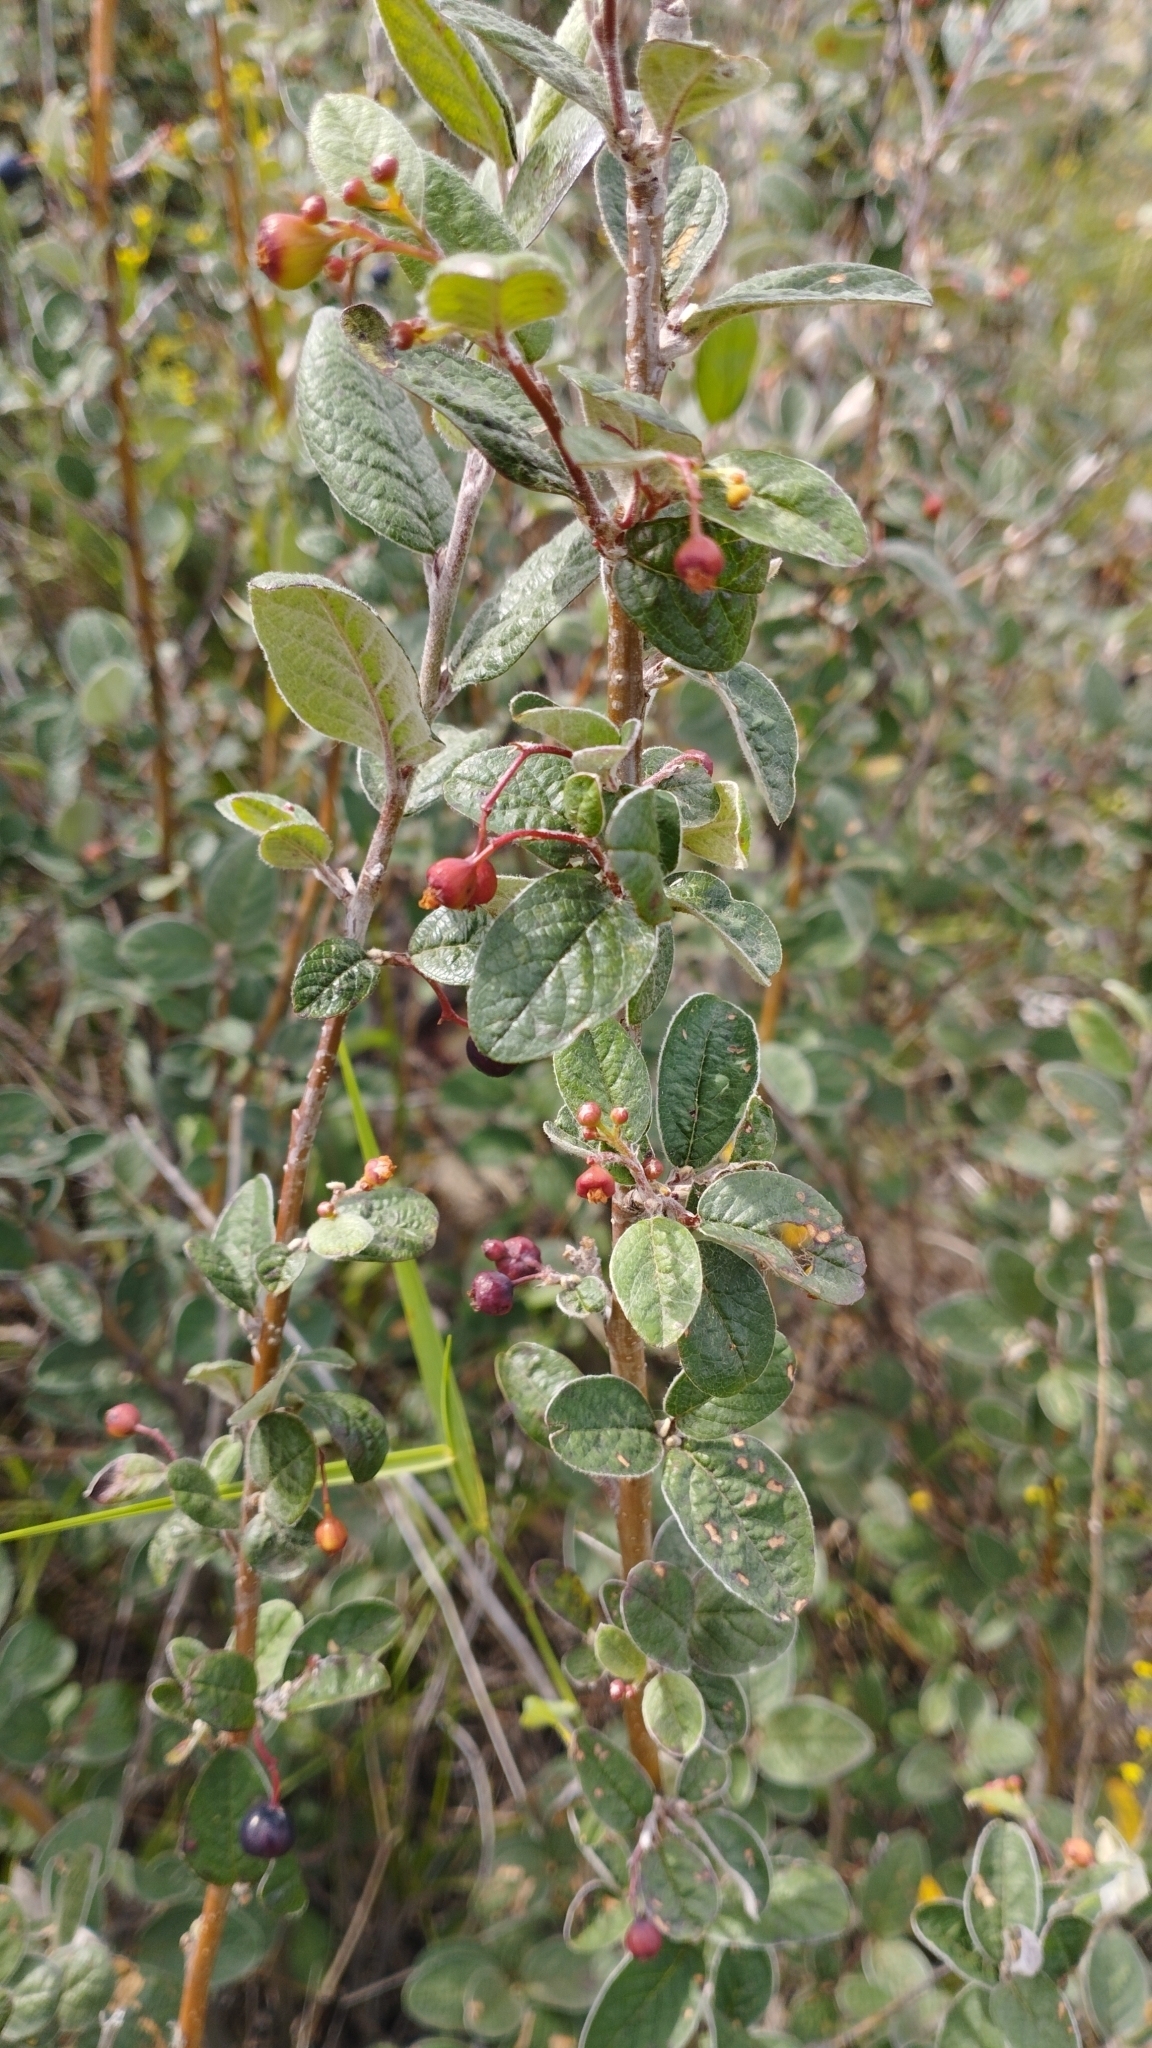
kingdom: Plantae
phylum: Tracheophyta
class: Magnoliopsida
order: Rosales
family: Rosaceae
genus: Cotoneaster
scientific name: Cotoneaster melanocarpus
